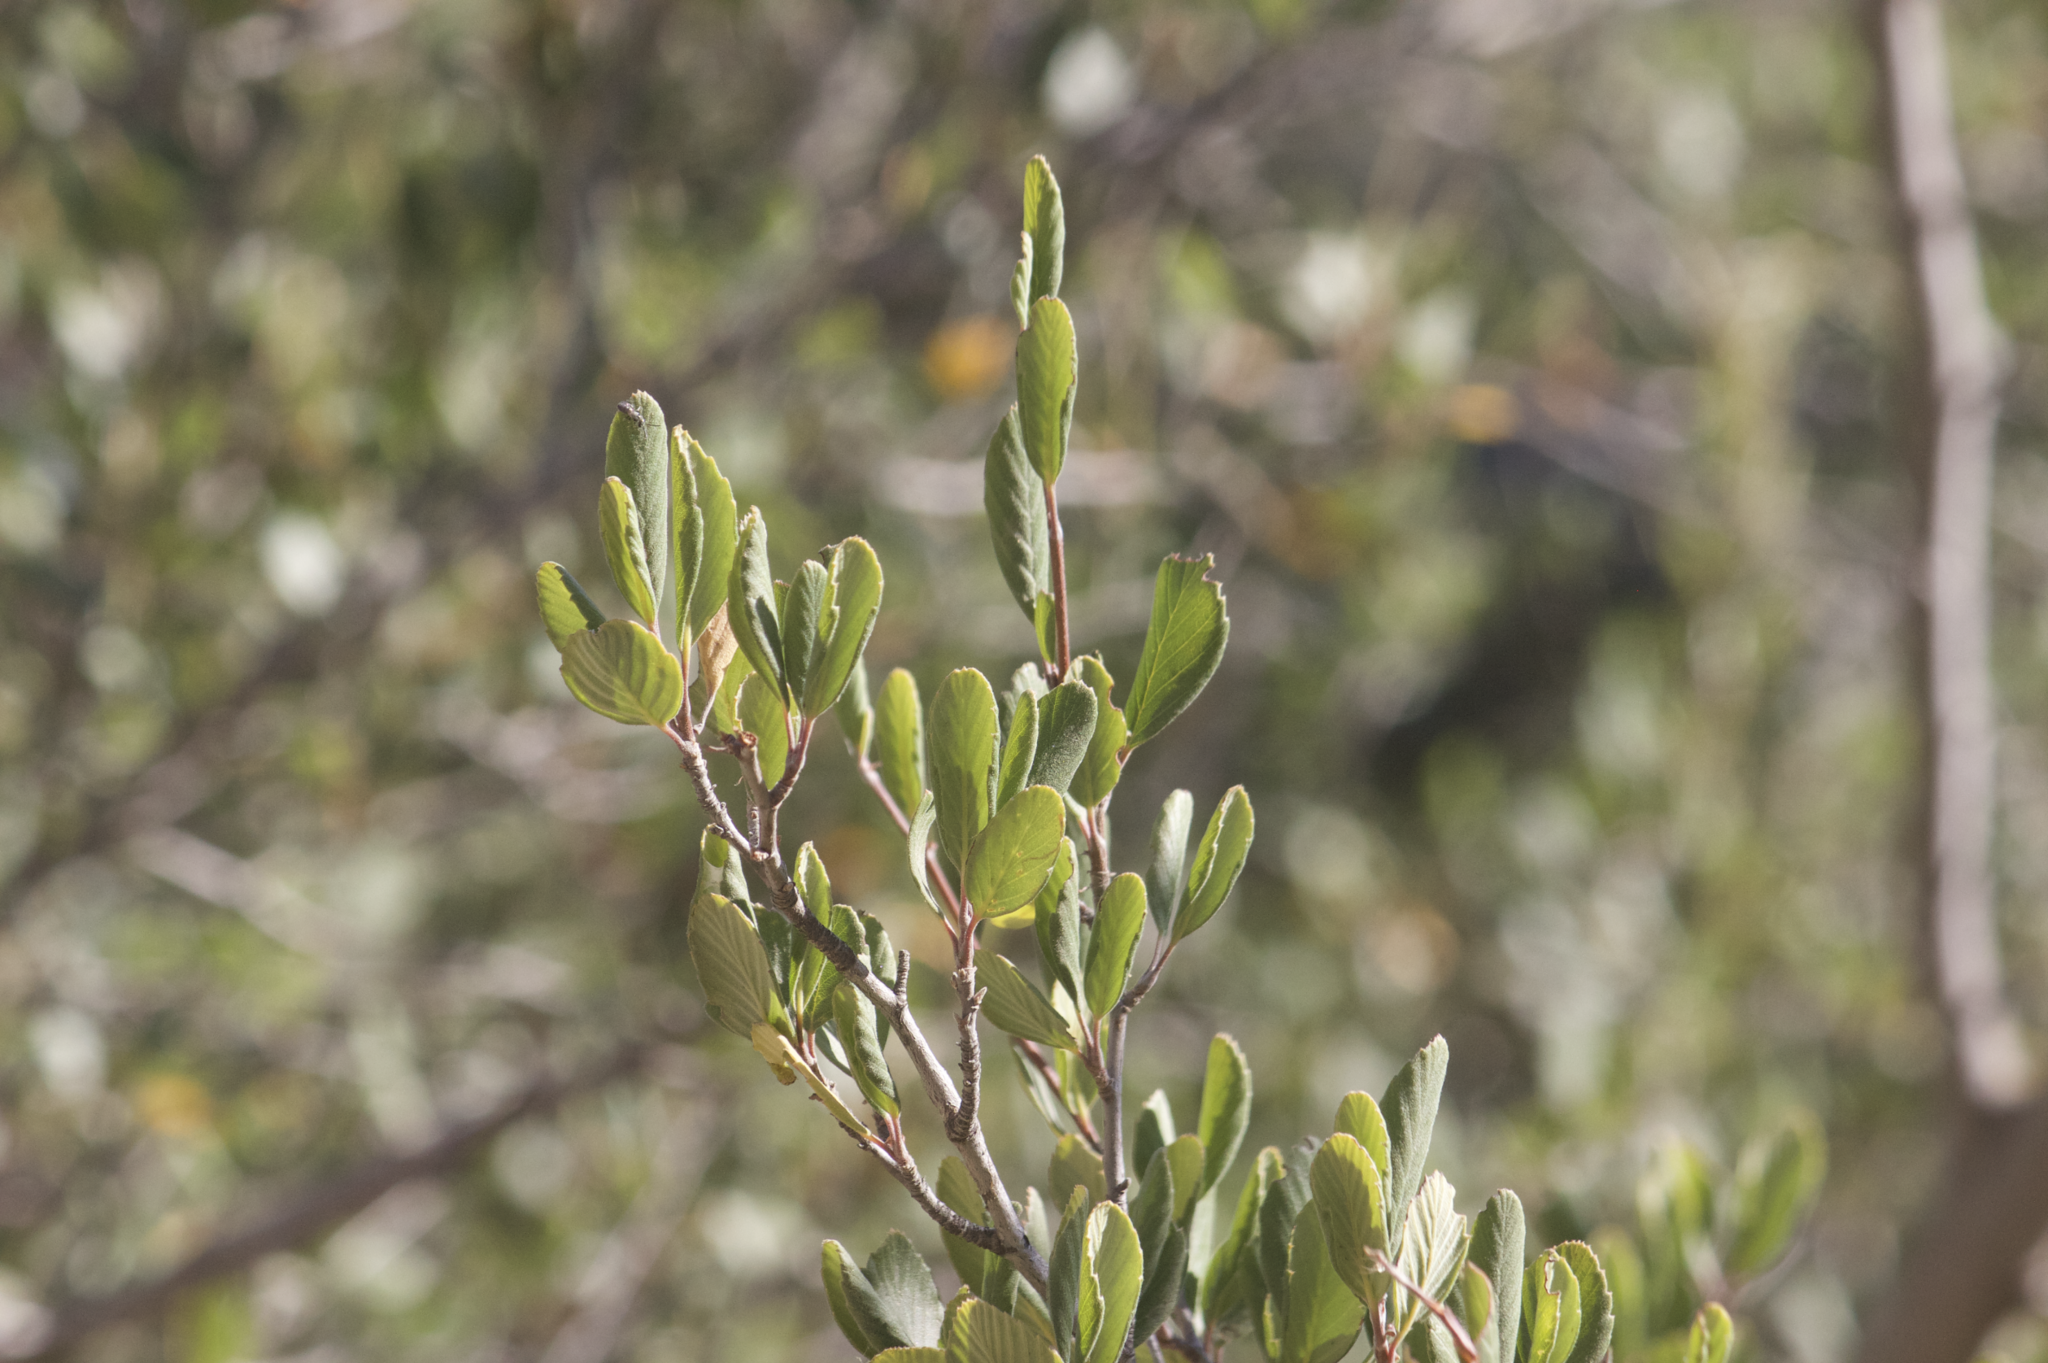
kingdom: Plantae
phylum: Tracheophyta
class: Magnoliopsida
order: Rosales
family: Rosaceae
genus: Cercocarpus
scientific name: Cercocarpus betuloides
